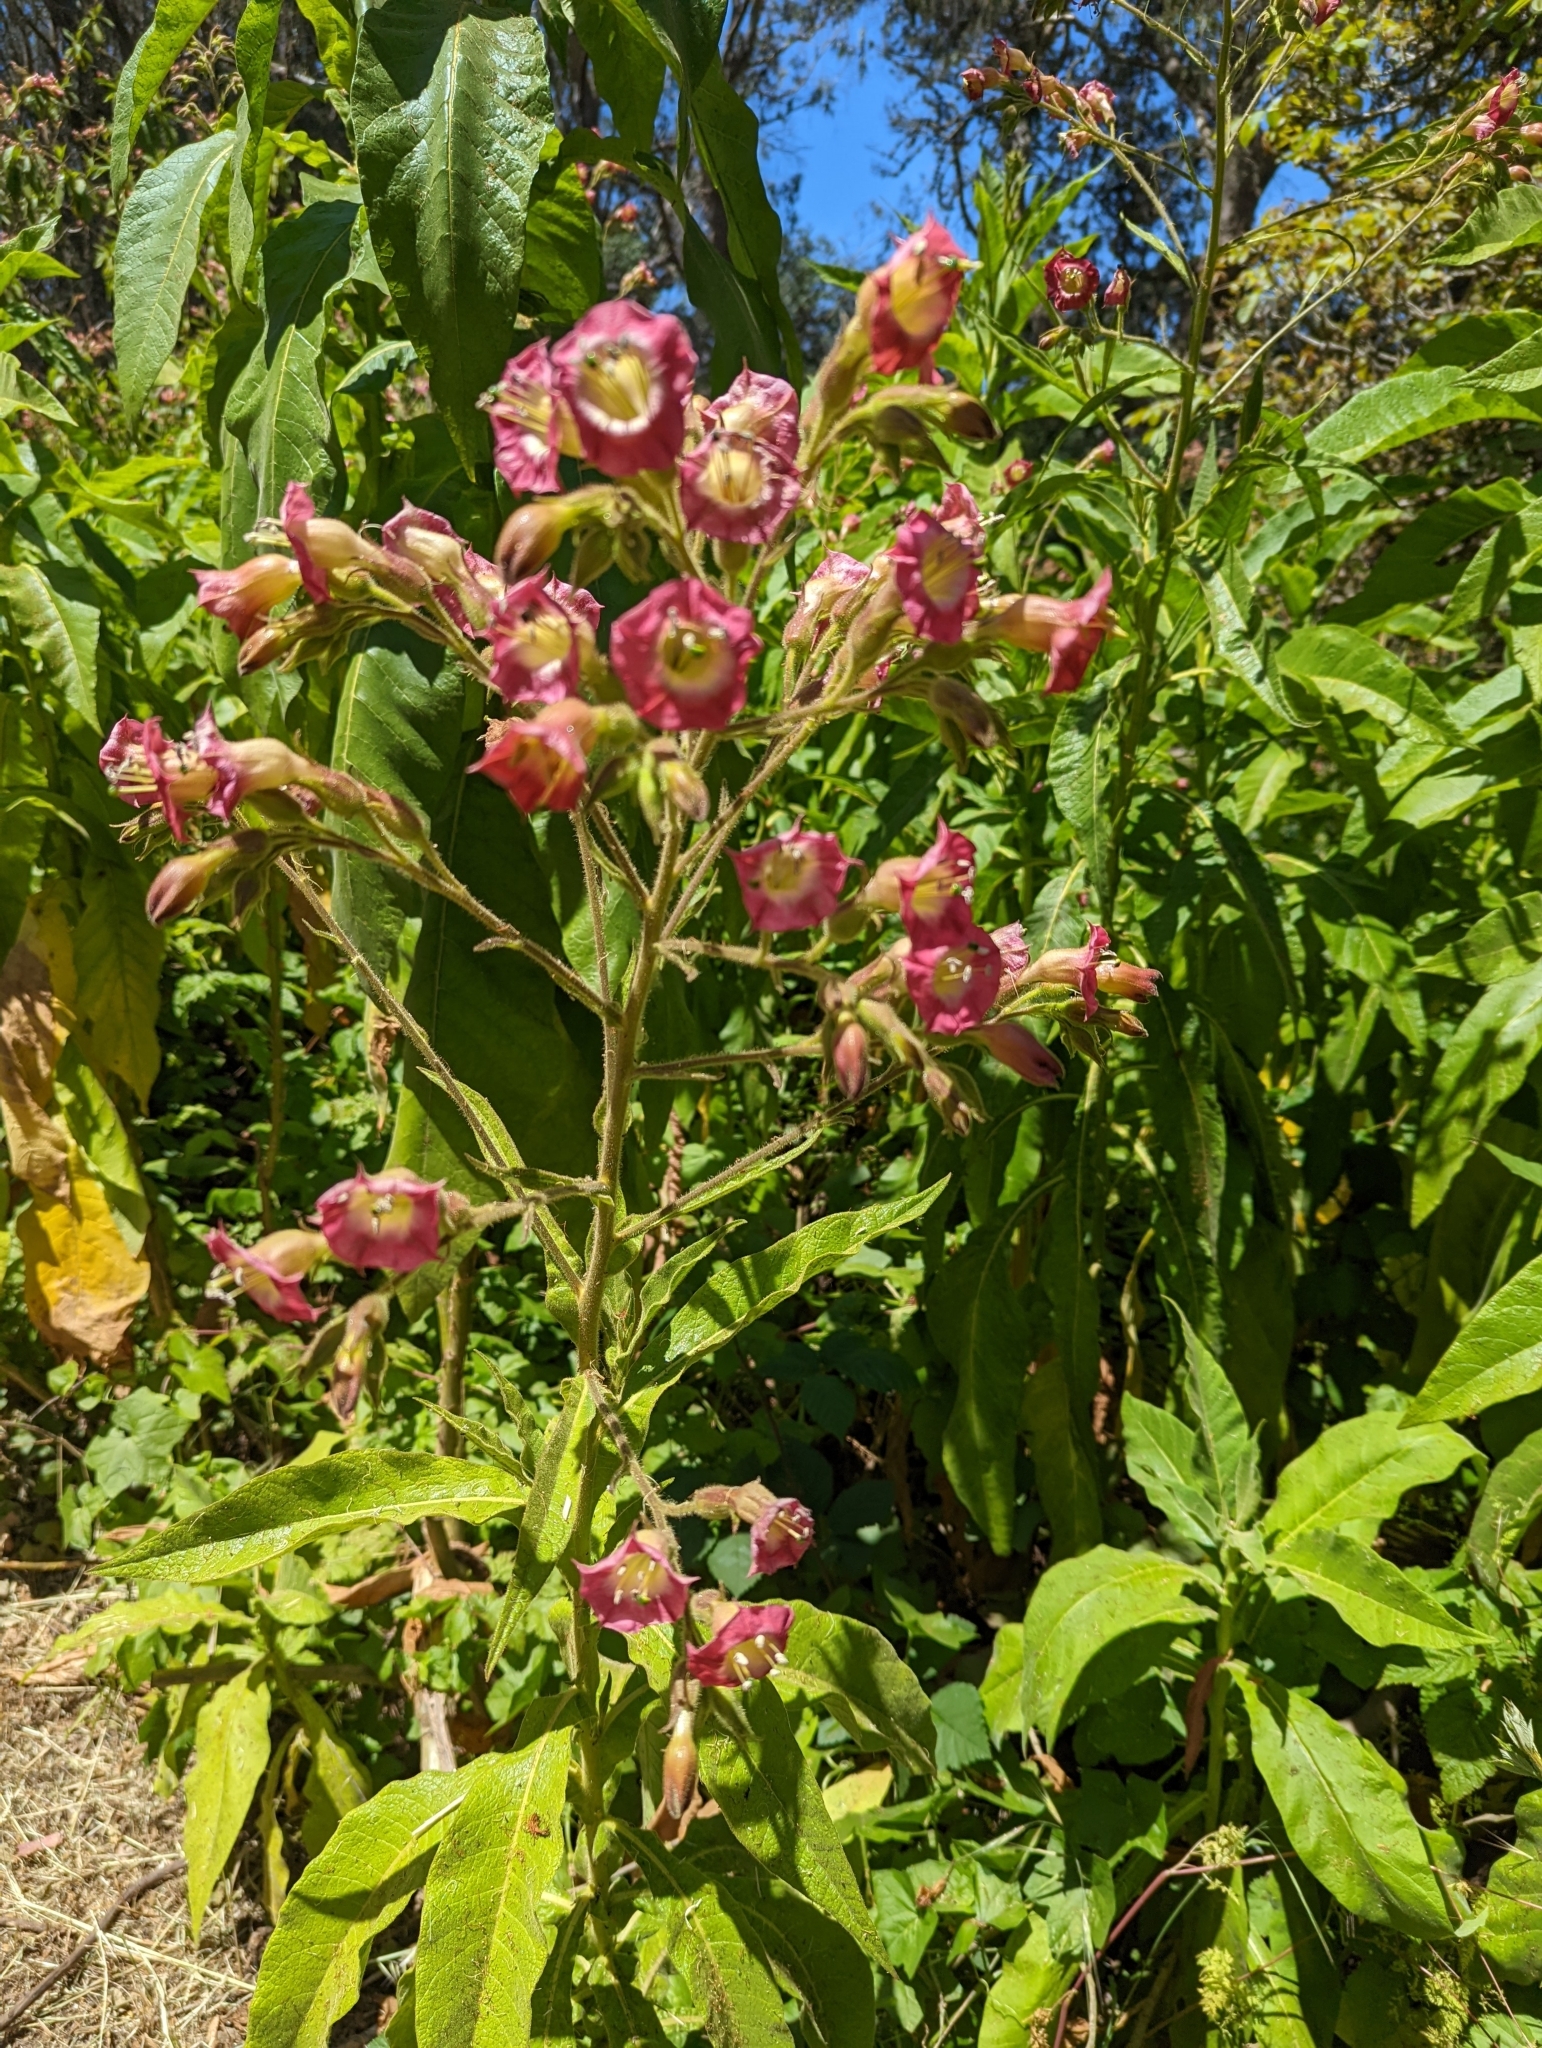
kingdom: Plantae
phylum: Tracheophyta
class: Magnoliopsida
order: Solanales
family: Solanaceae
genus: Nicotiana
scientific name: Nicotiana tabacum
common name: Tobacco
